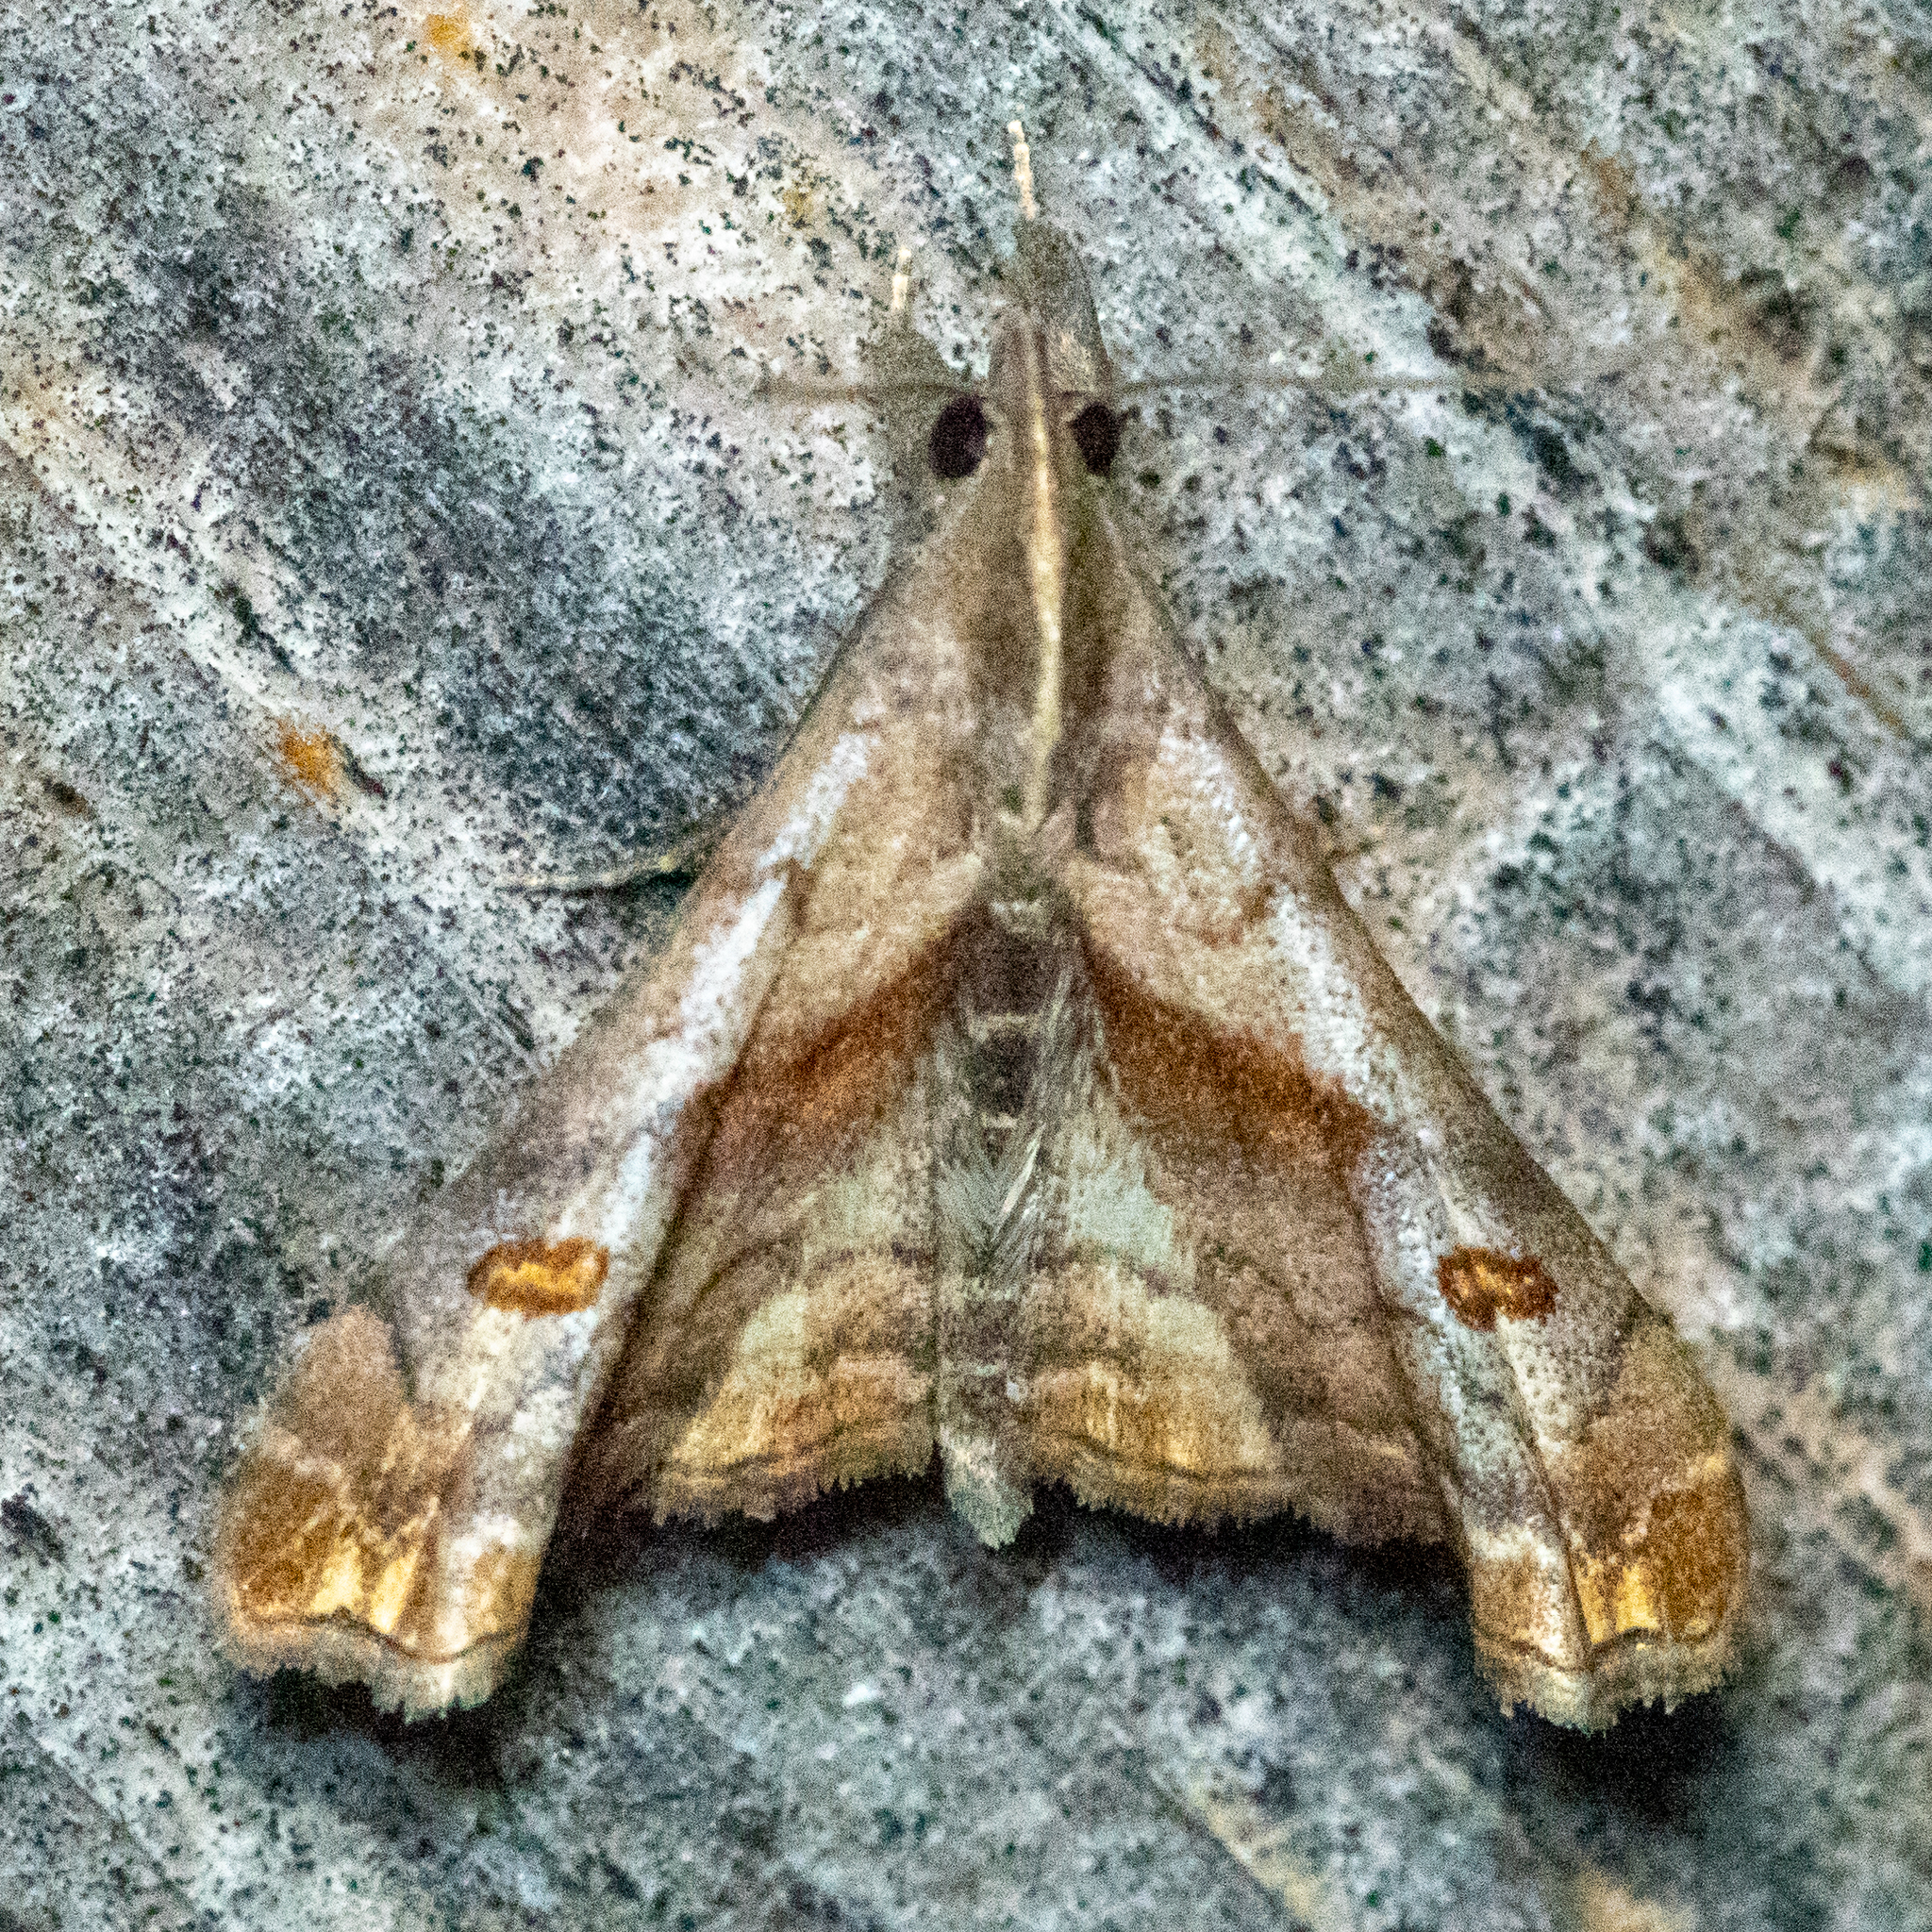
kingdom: Animalia
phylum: Arthropoda
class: Insecta
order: Lepidoptera
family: Erebidae
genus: Palthis
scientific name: Palthis angulalis
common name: Dark-spotted palthis moth
